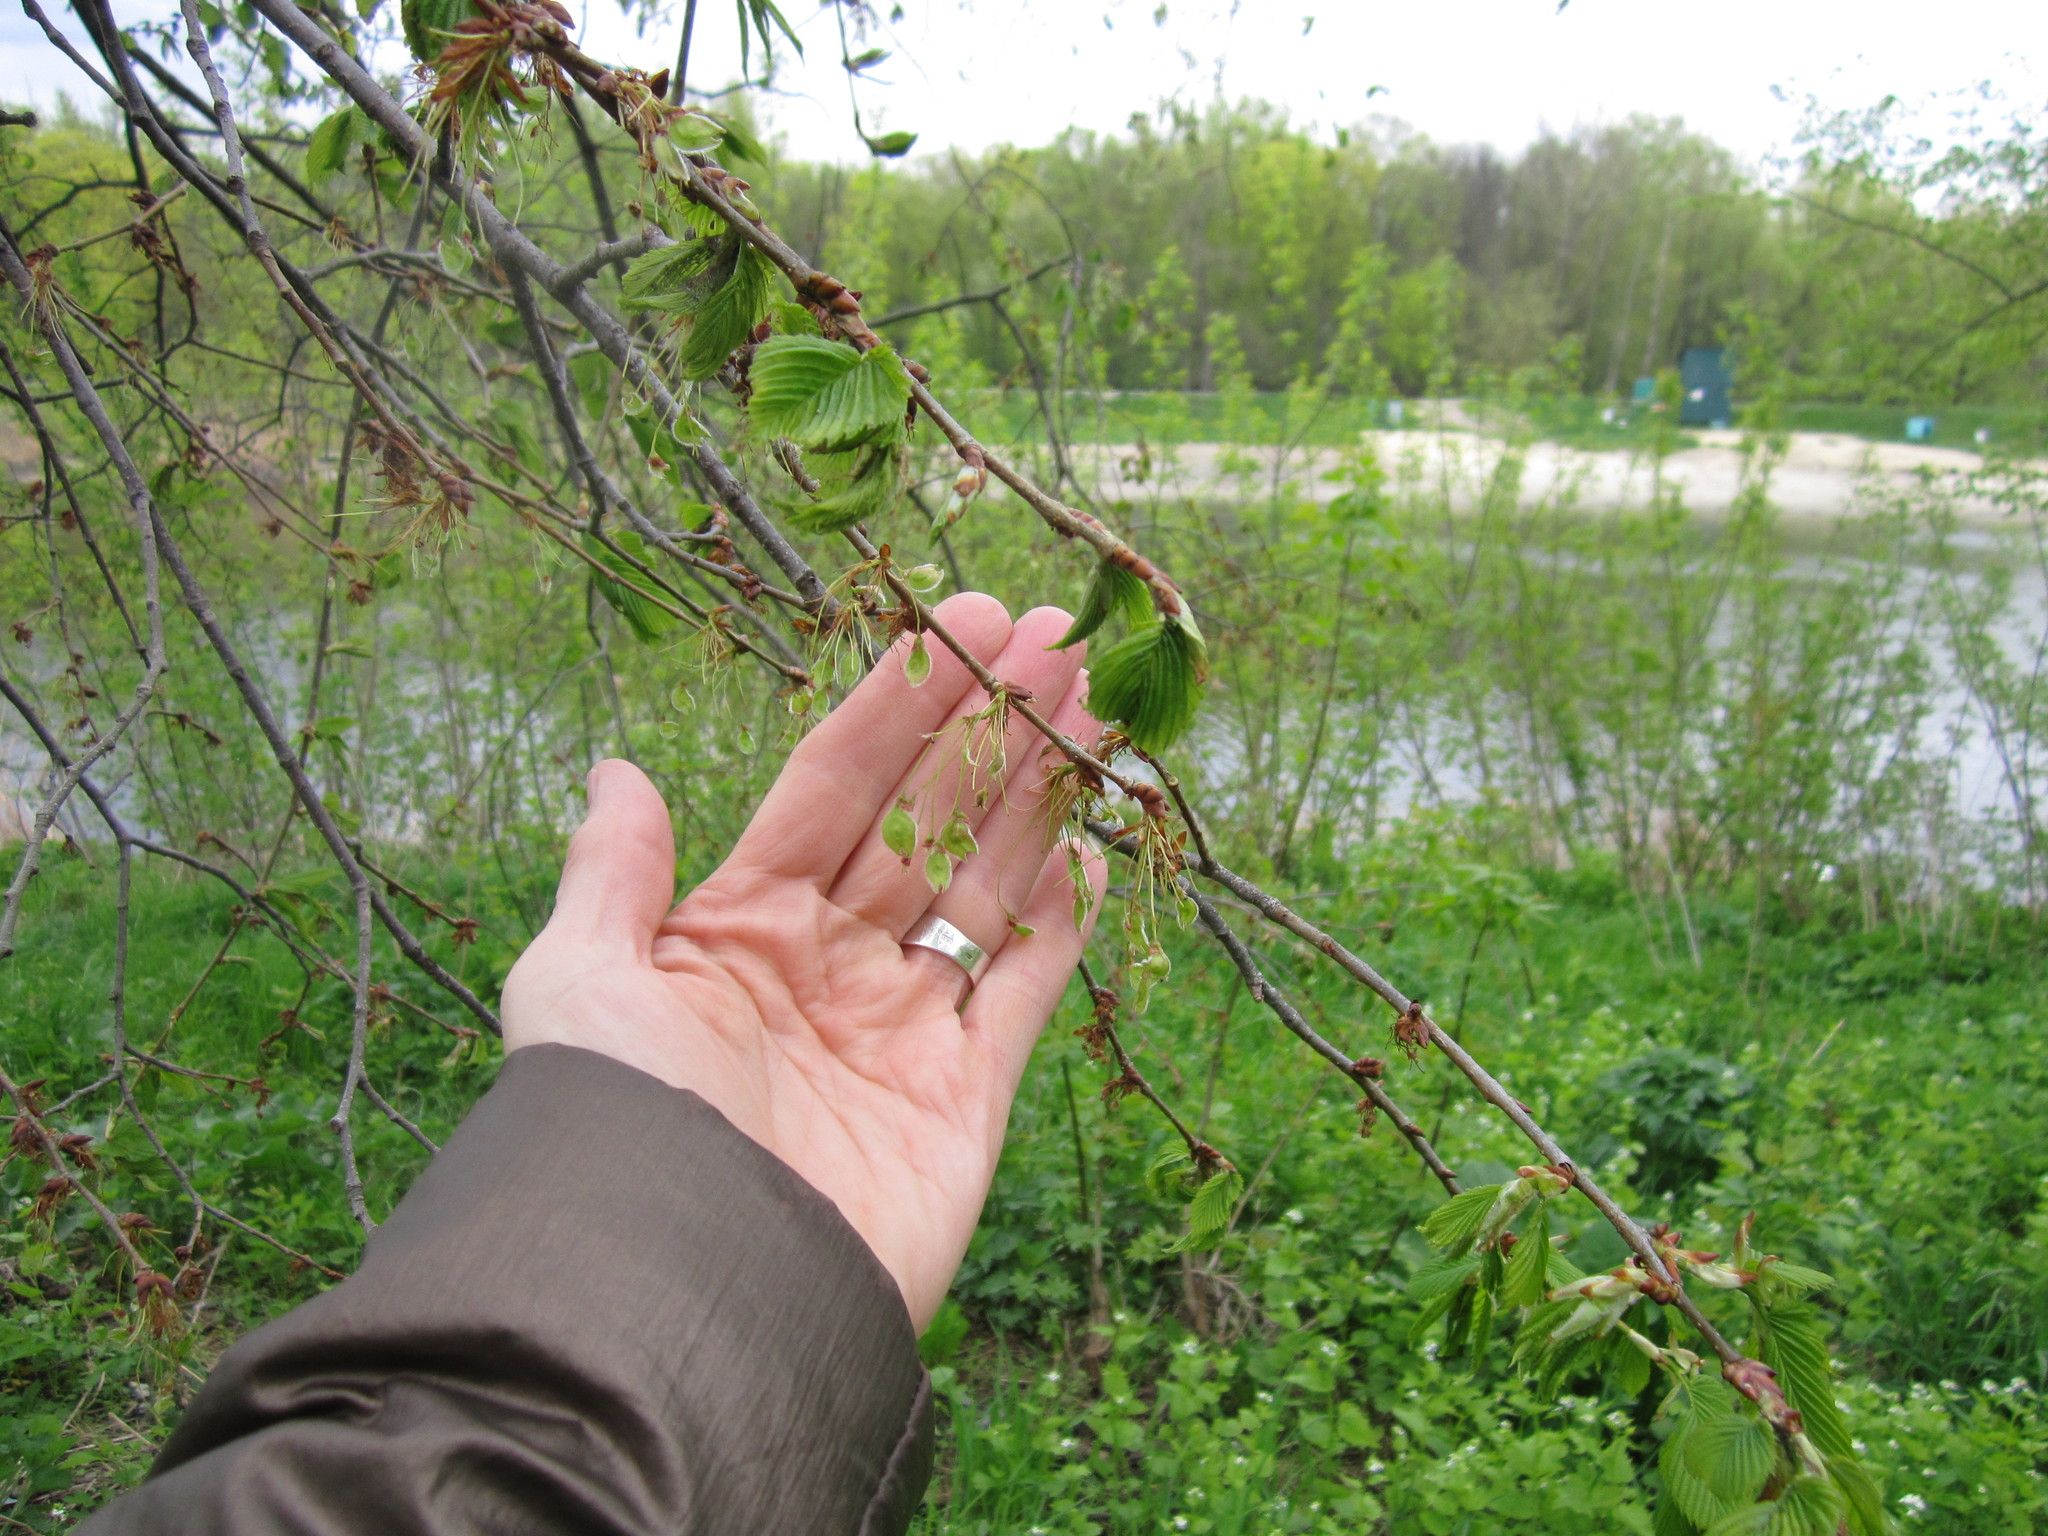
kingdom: Plantae
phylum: Tracheophyta
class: Magnoliopsida
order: Rosales
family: Ulmaceae
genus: Ulmus
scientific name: Ulmus laevis
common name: European white-elm
